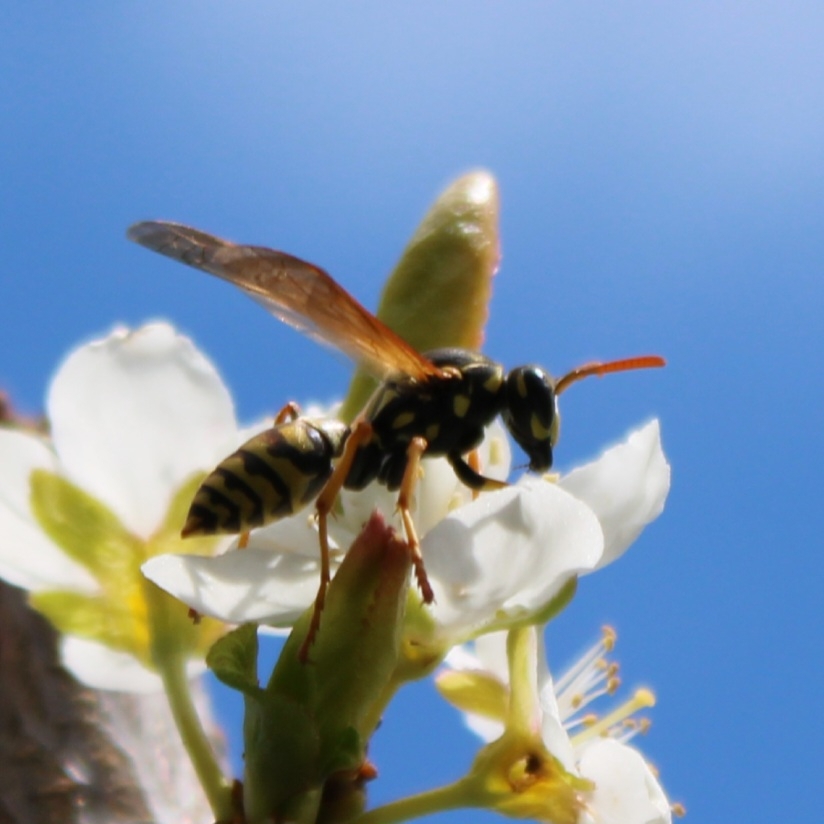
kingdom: Animalia
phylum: Arthropoda
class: Insecta
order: Hymenoptera
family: Eumenidae
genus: Polistes
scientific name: Polistes dominula
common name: Paper wasp
